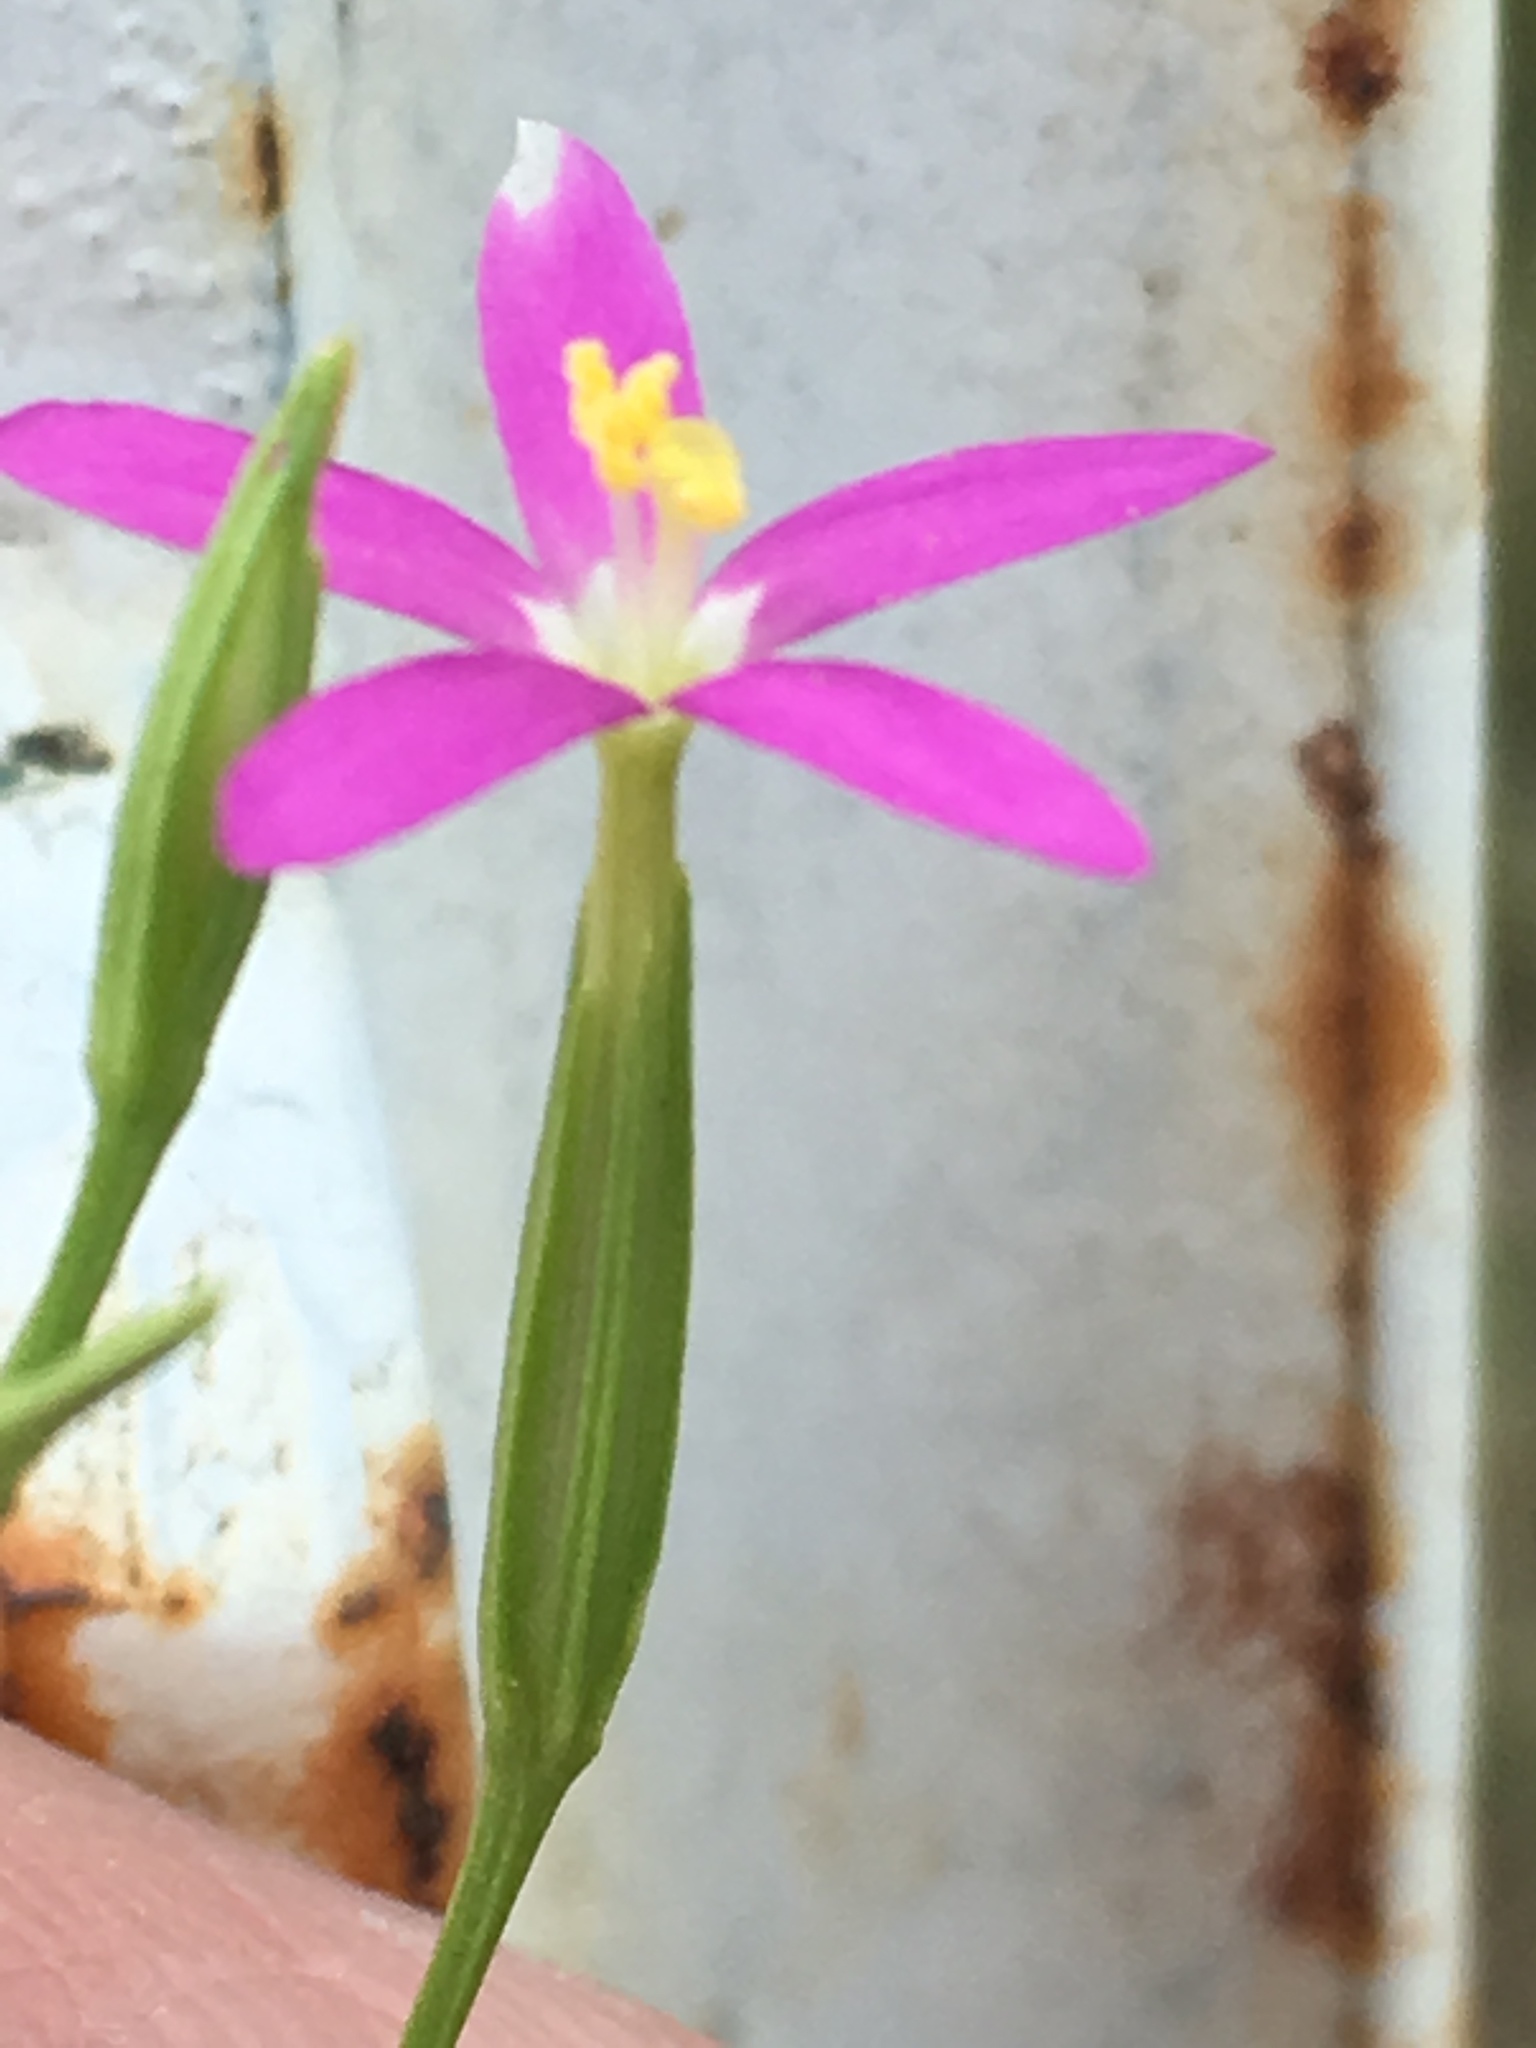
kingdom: Plantae
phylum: Tracheophyta
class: Magnoliopsida
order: Gentianales
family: Gentianaceae
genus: Zeltnera
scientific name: Zeltnera texensis
